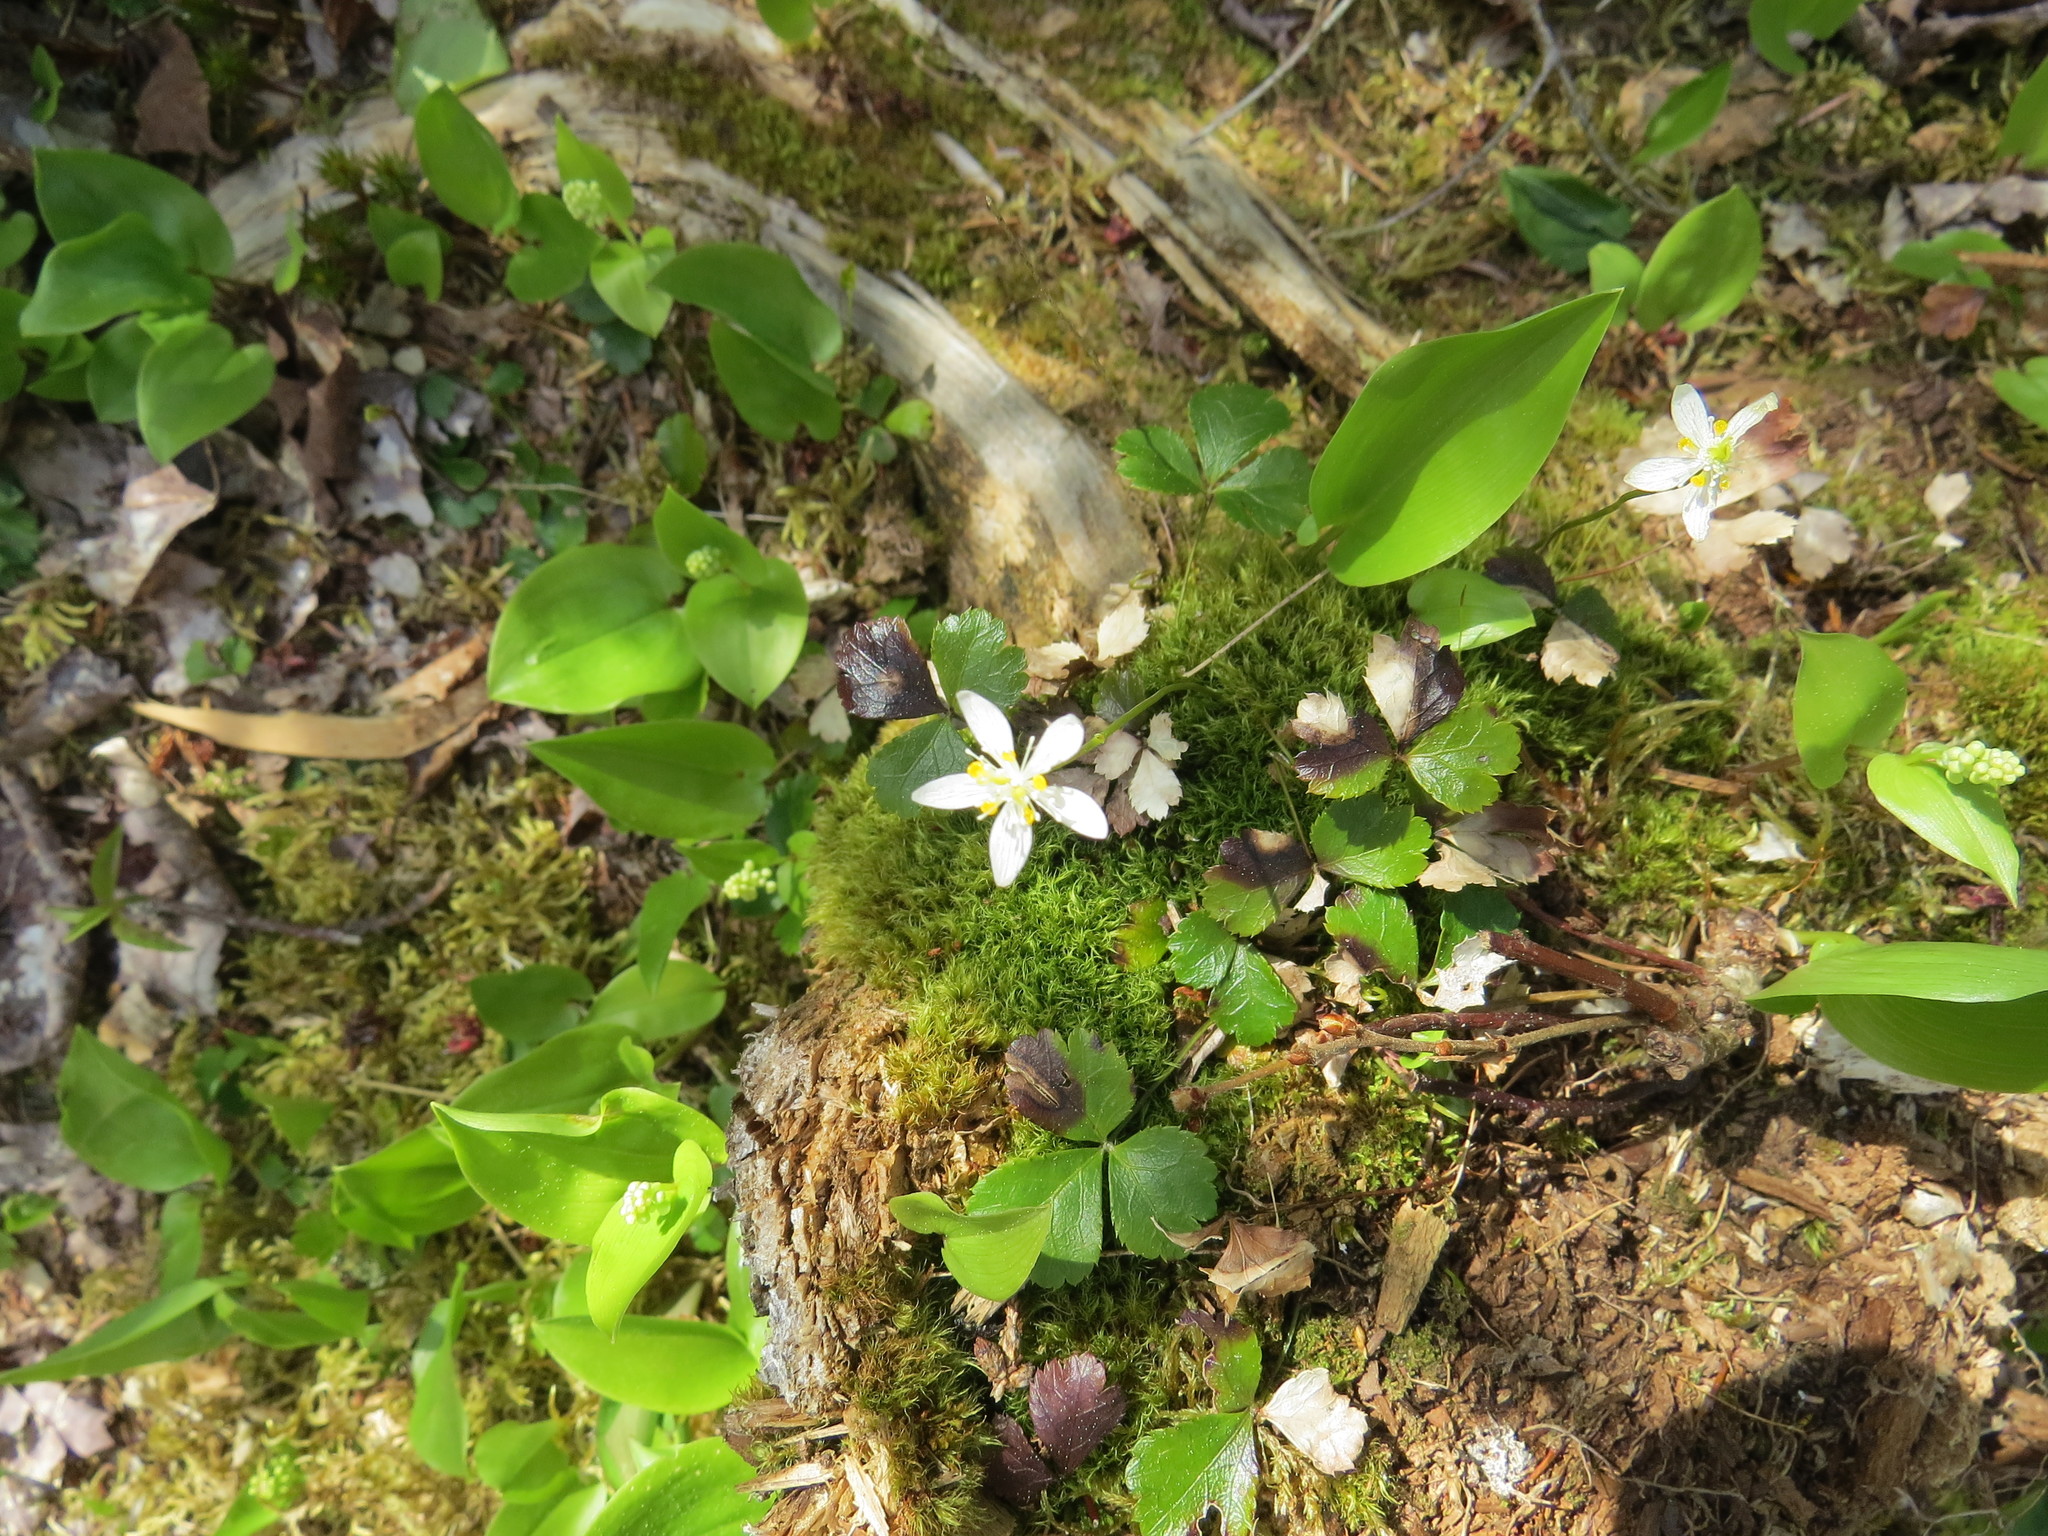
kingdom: Plantae
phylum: Tracheophyta
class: Magnoliopsida
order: Ranunculales
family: Ranunculaceae
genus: Coptis
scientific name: Coptis trifolia
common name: Canker-root
